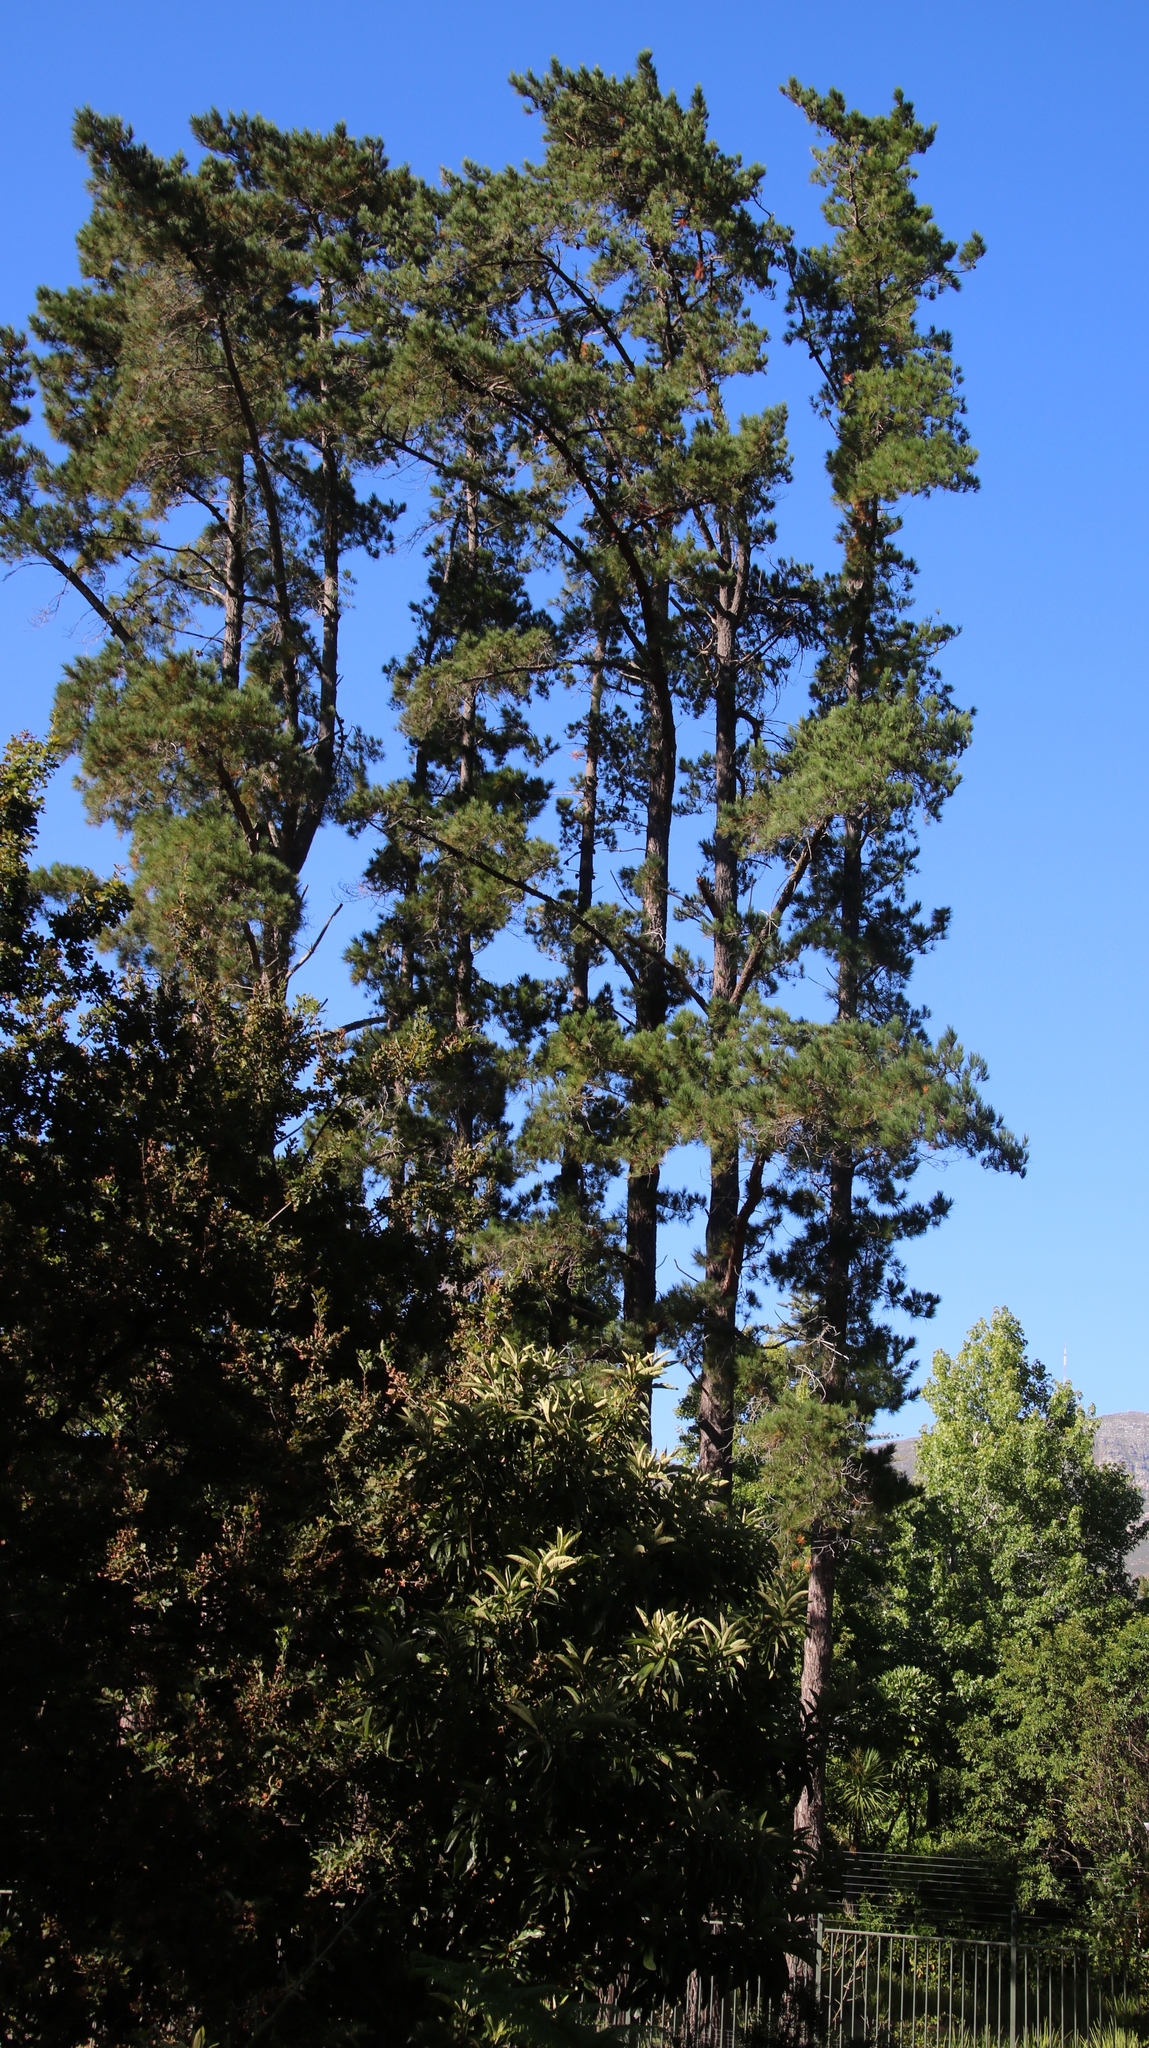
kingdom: Plantae
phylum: Tracheophyta
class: Pinopsida
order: Pinales
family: Pinaceae
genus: Pinus
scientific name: Pinus radiata
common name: Monterey pine
